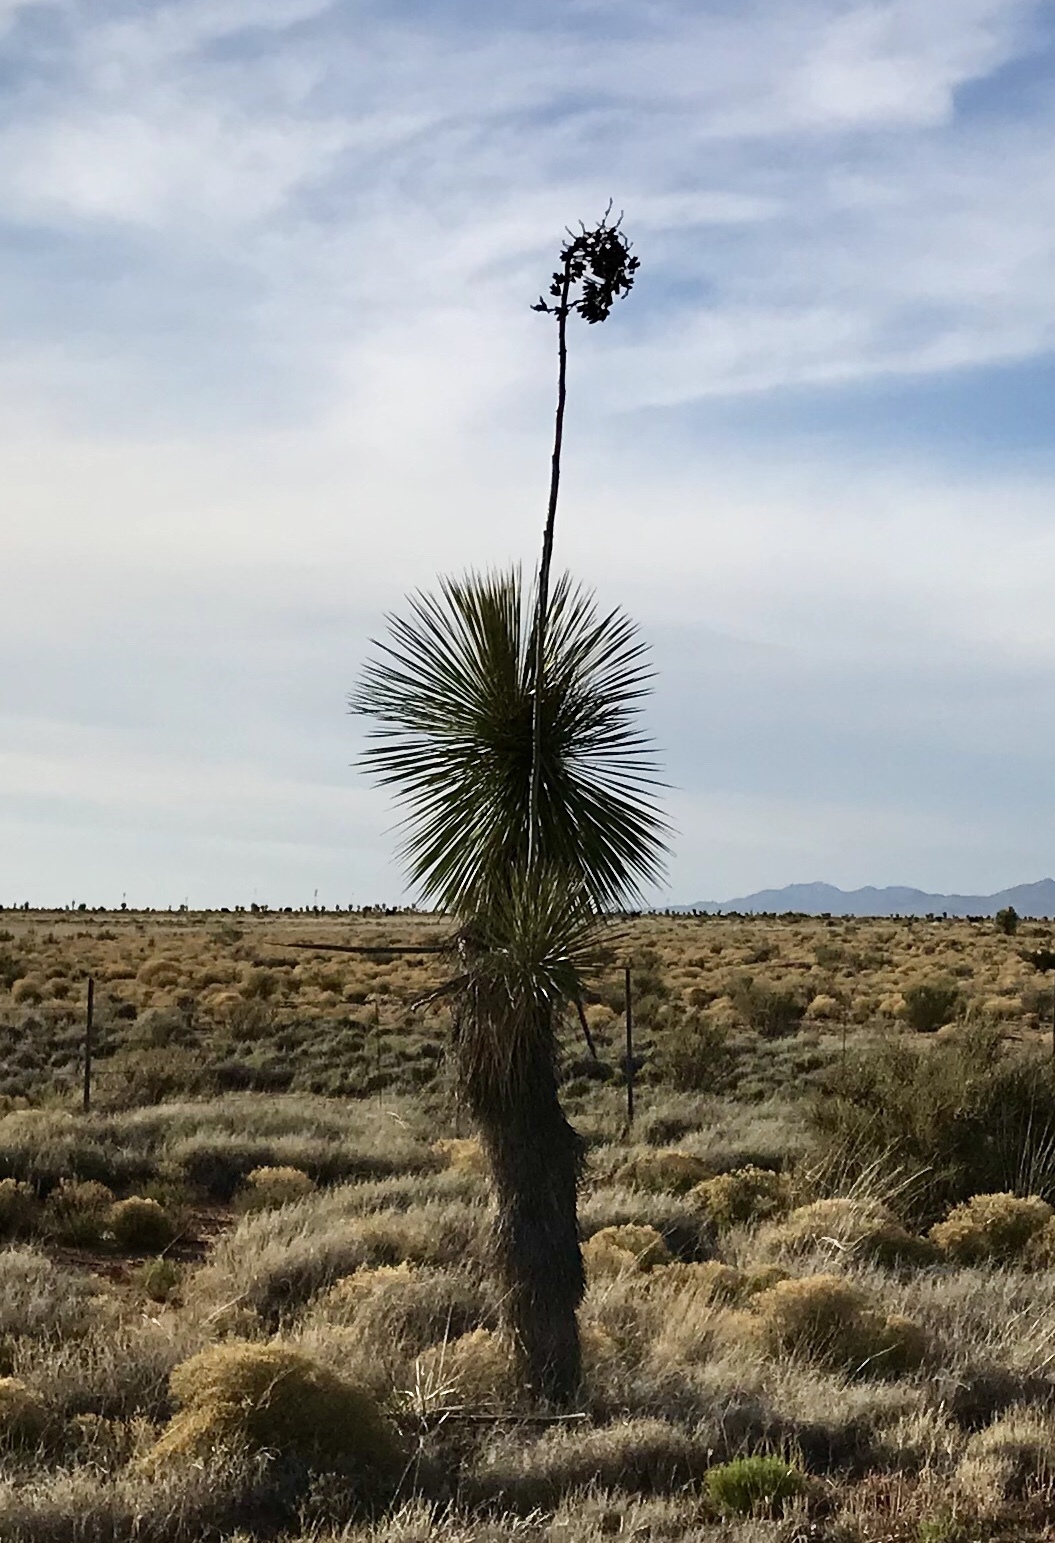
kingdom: Plantae
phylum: Tracheophyta
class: Liliopsida
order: Asparagales
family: Asparagaceae
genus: Yucca
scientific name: Yucca elata
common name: Palmella
